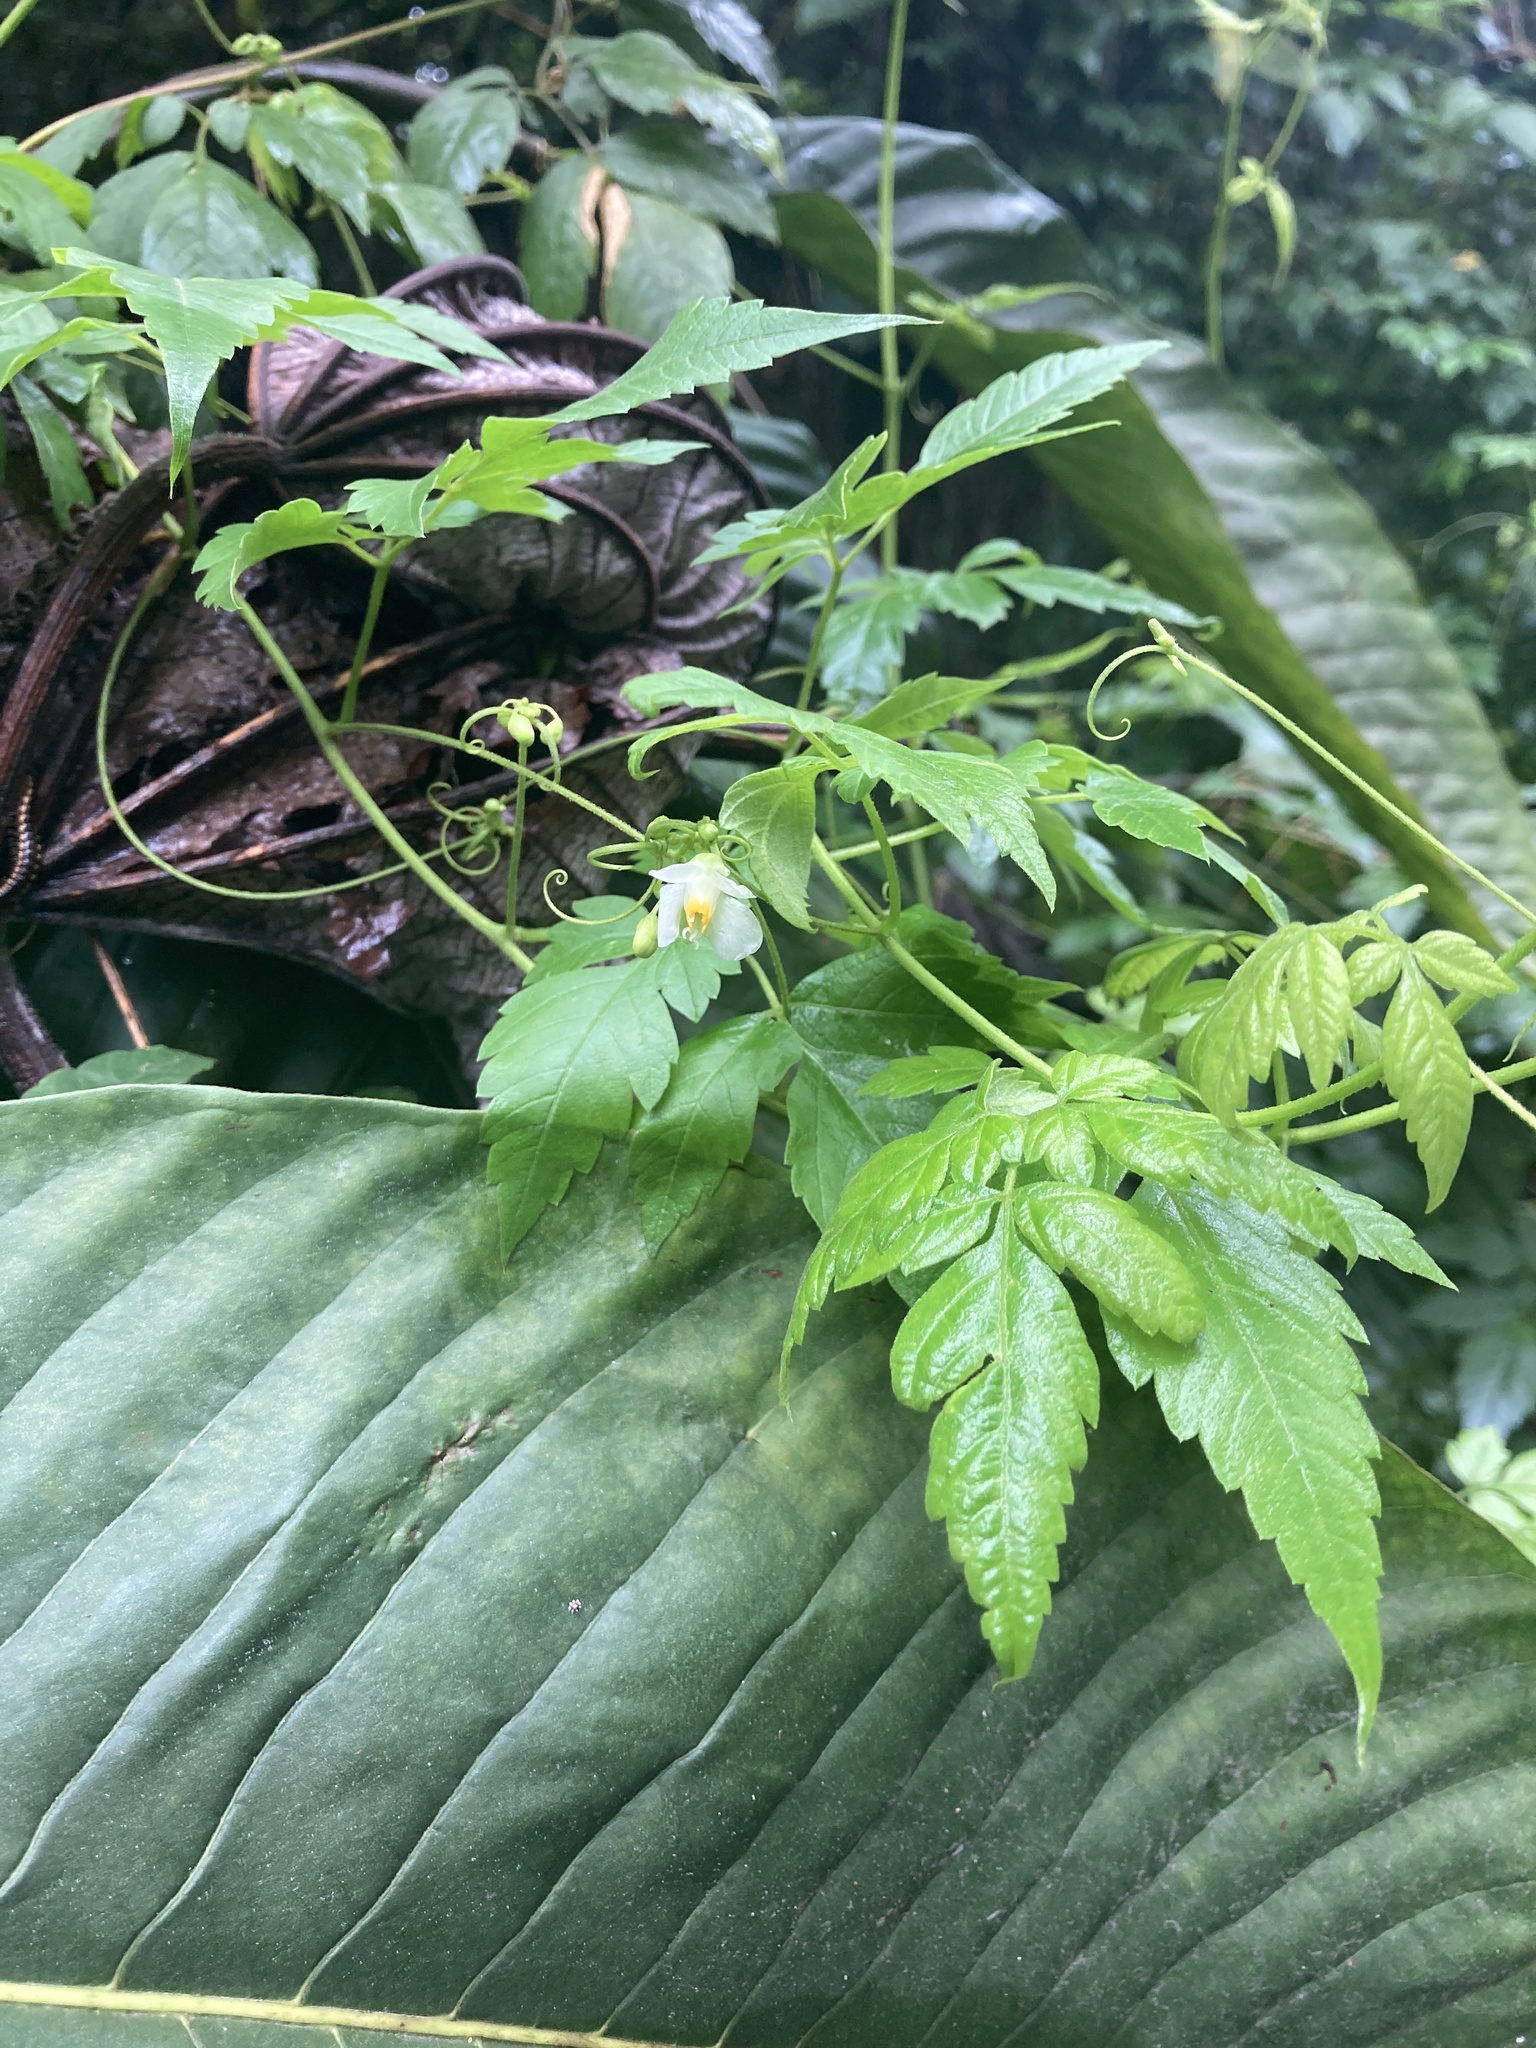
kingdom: Plantae
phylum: Tracheophyta
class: Magnoliopsida
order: Sapindales
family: Sapindaceae
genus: Cardiospermum
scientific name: Cardiospermum halicacabum
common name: Balloon vine
